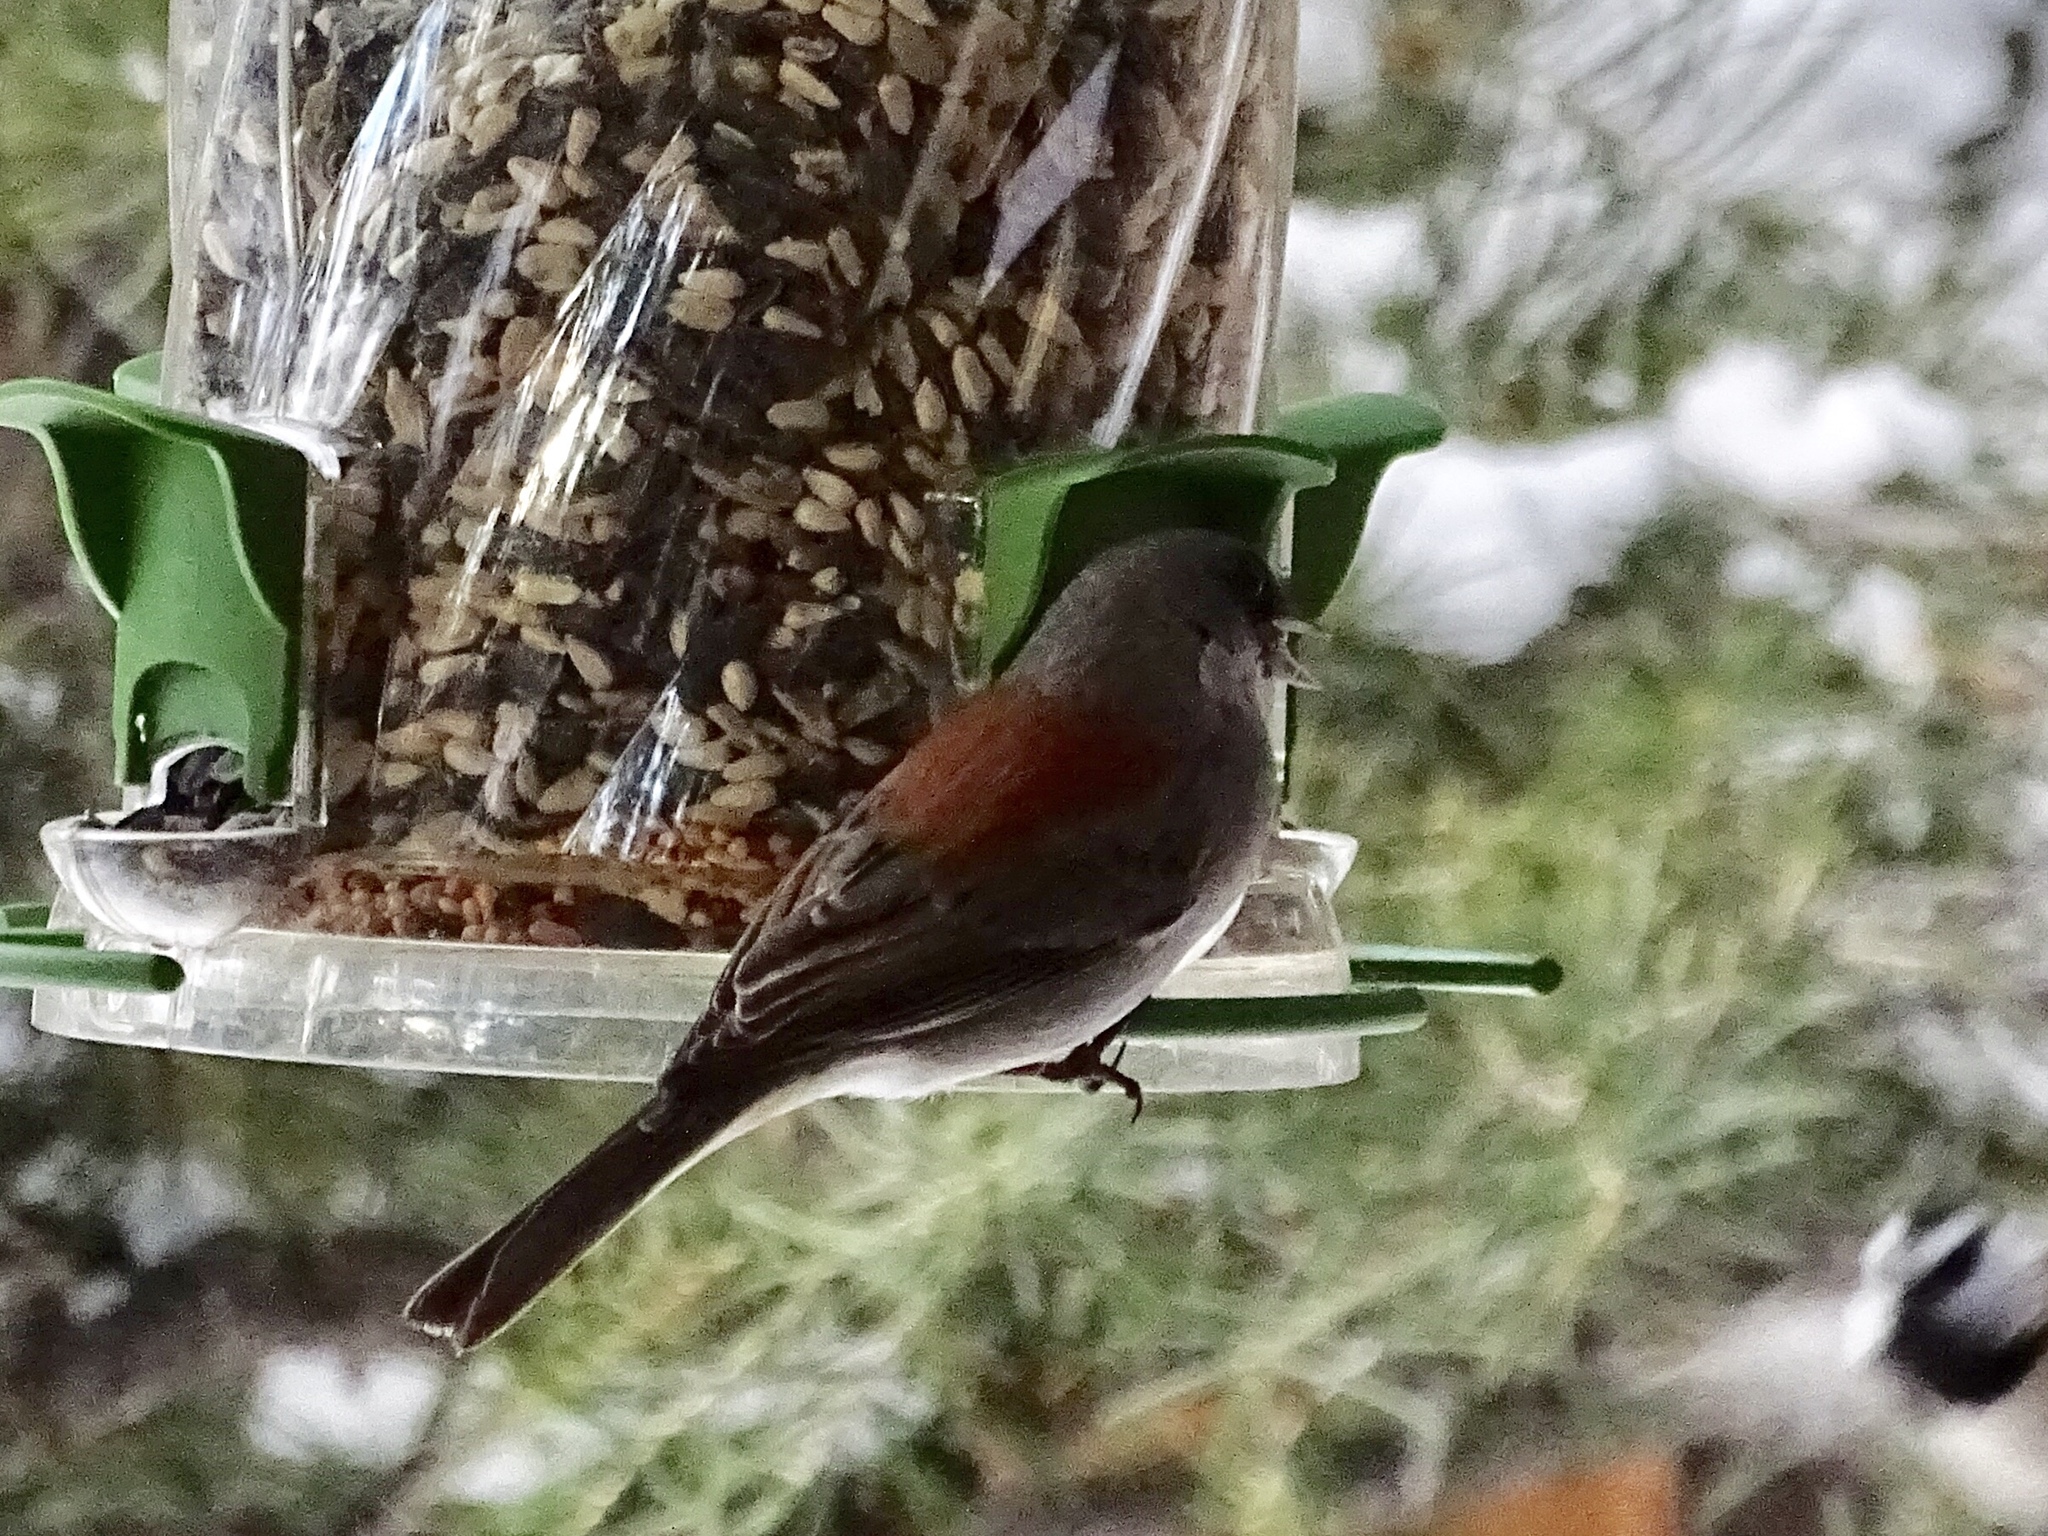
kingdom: Animalia
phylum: Chordata
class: Aves
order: Passeriformes
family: Passerellidae
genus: Junco
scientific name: Junco hyemalis
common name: Dark-eyed junco
